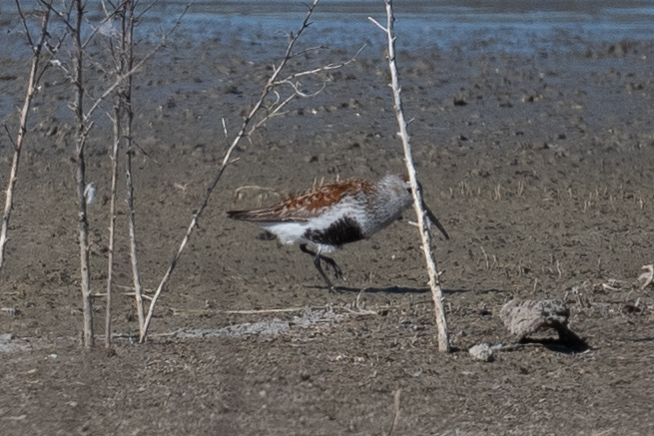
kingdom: Animalia
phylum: Chordata
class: Aves
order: Charadriiformes
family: Scolopacidae
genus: Calidris
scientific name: Calidris alpina
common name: Dunlin
